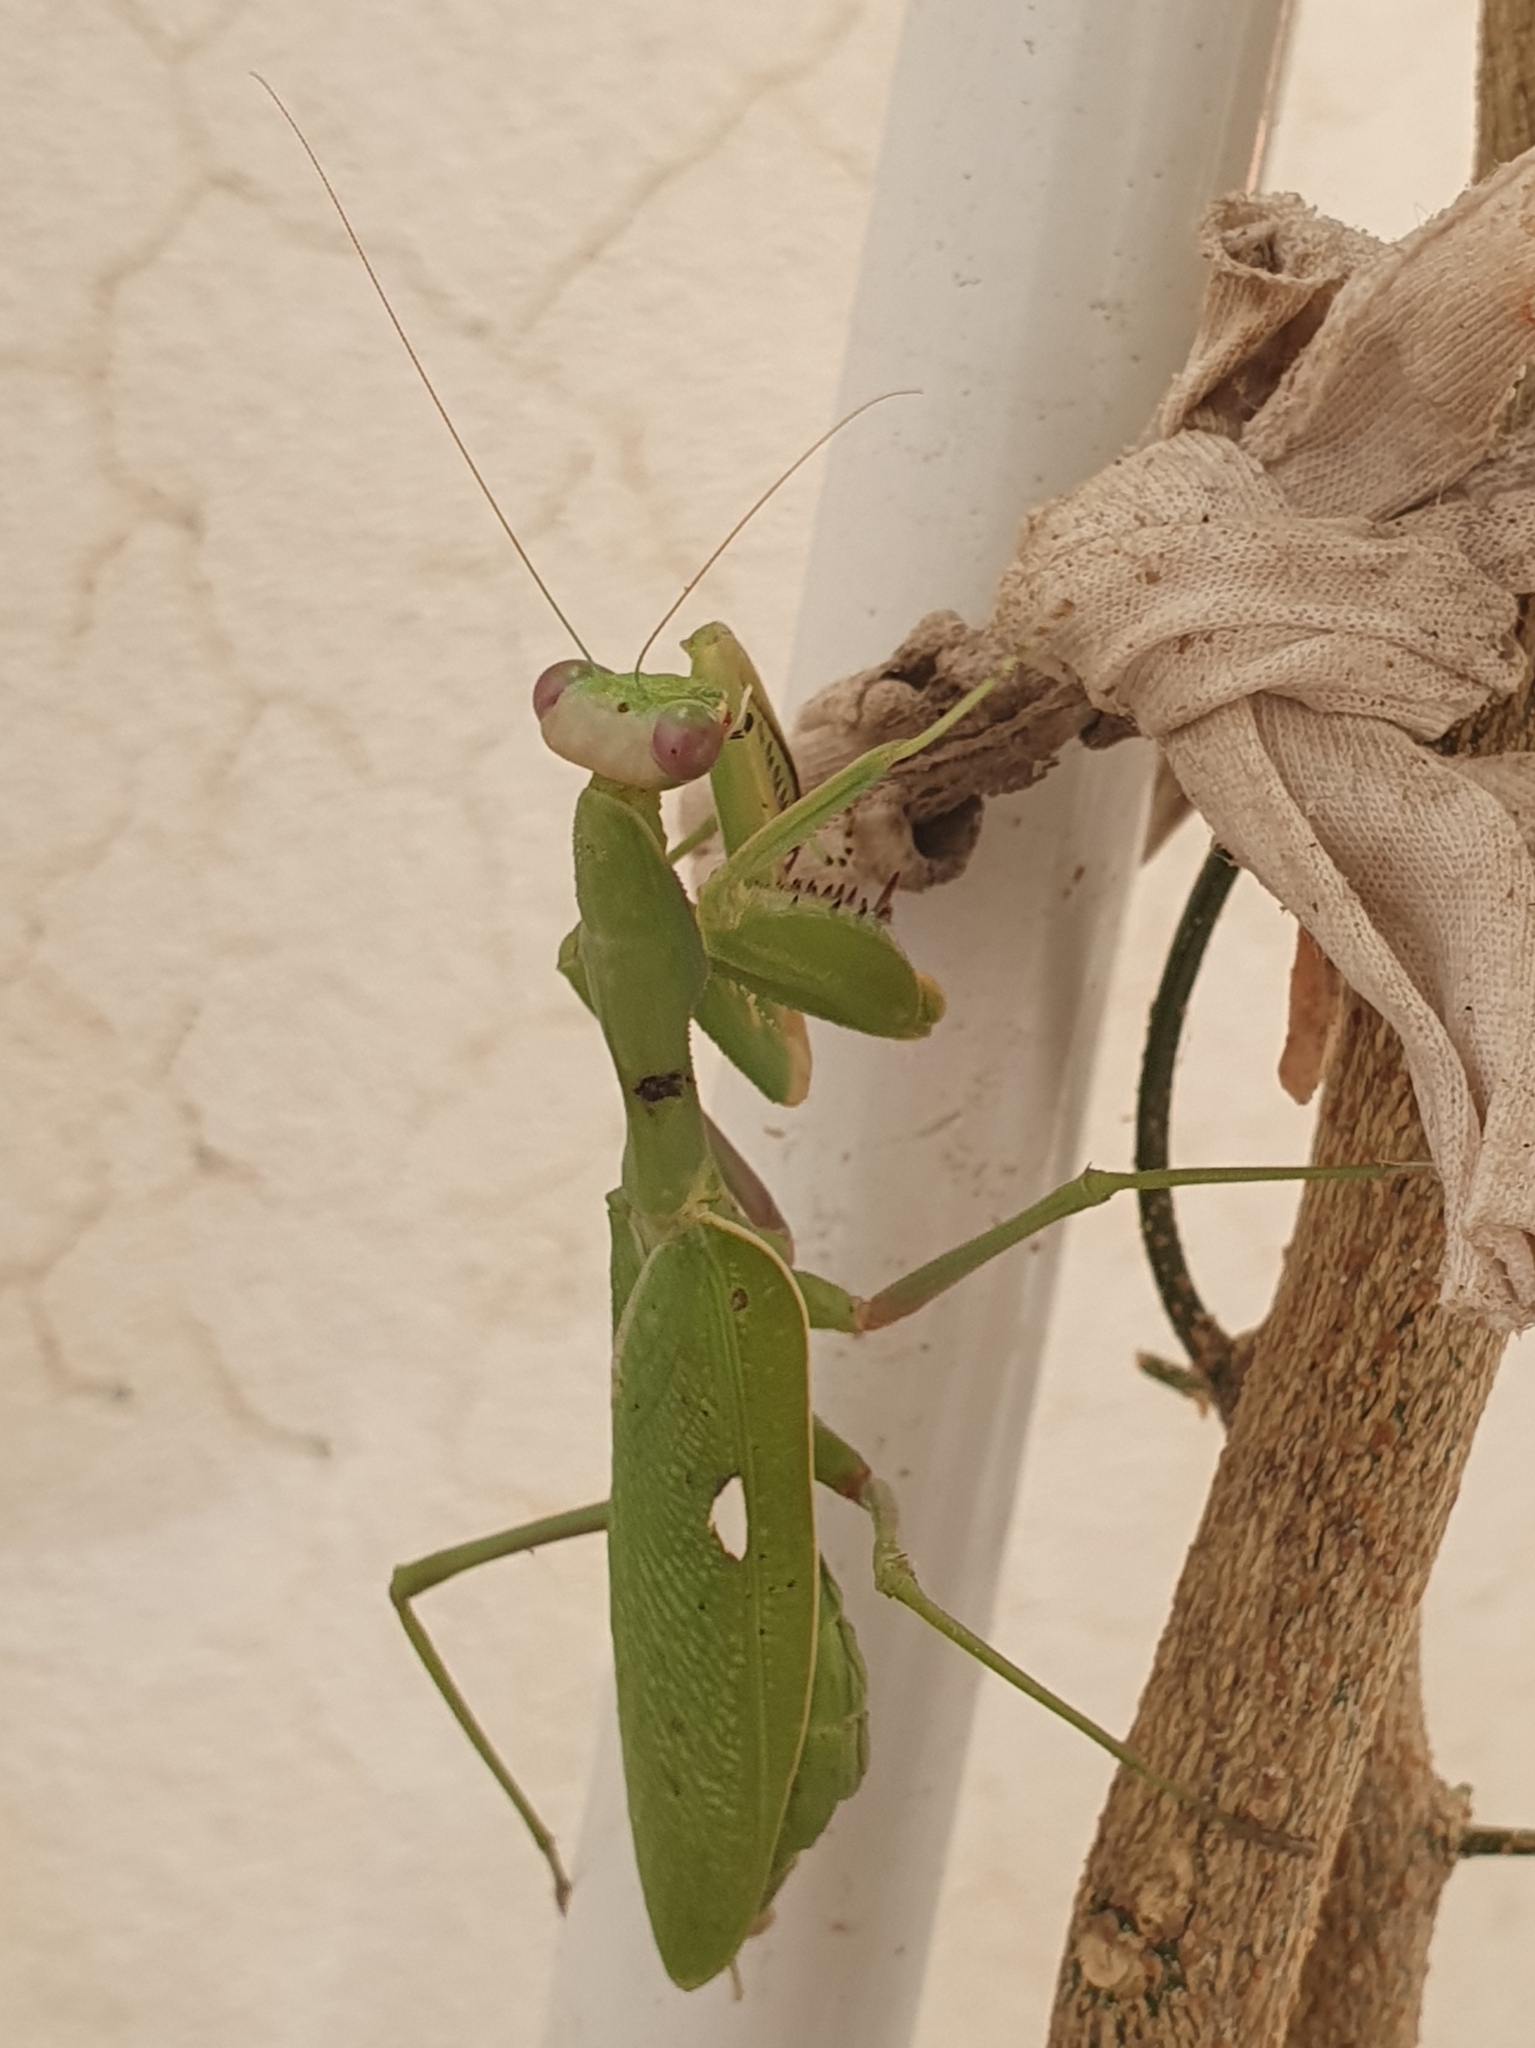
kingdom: Animalia
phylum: Arthropoda
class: Insecta
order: Mantodea
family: Mantidae
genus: Sphodromantis
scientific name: Sphodromantis viridis
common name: Giant african mantis
